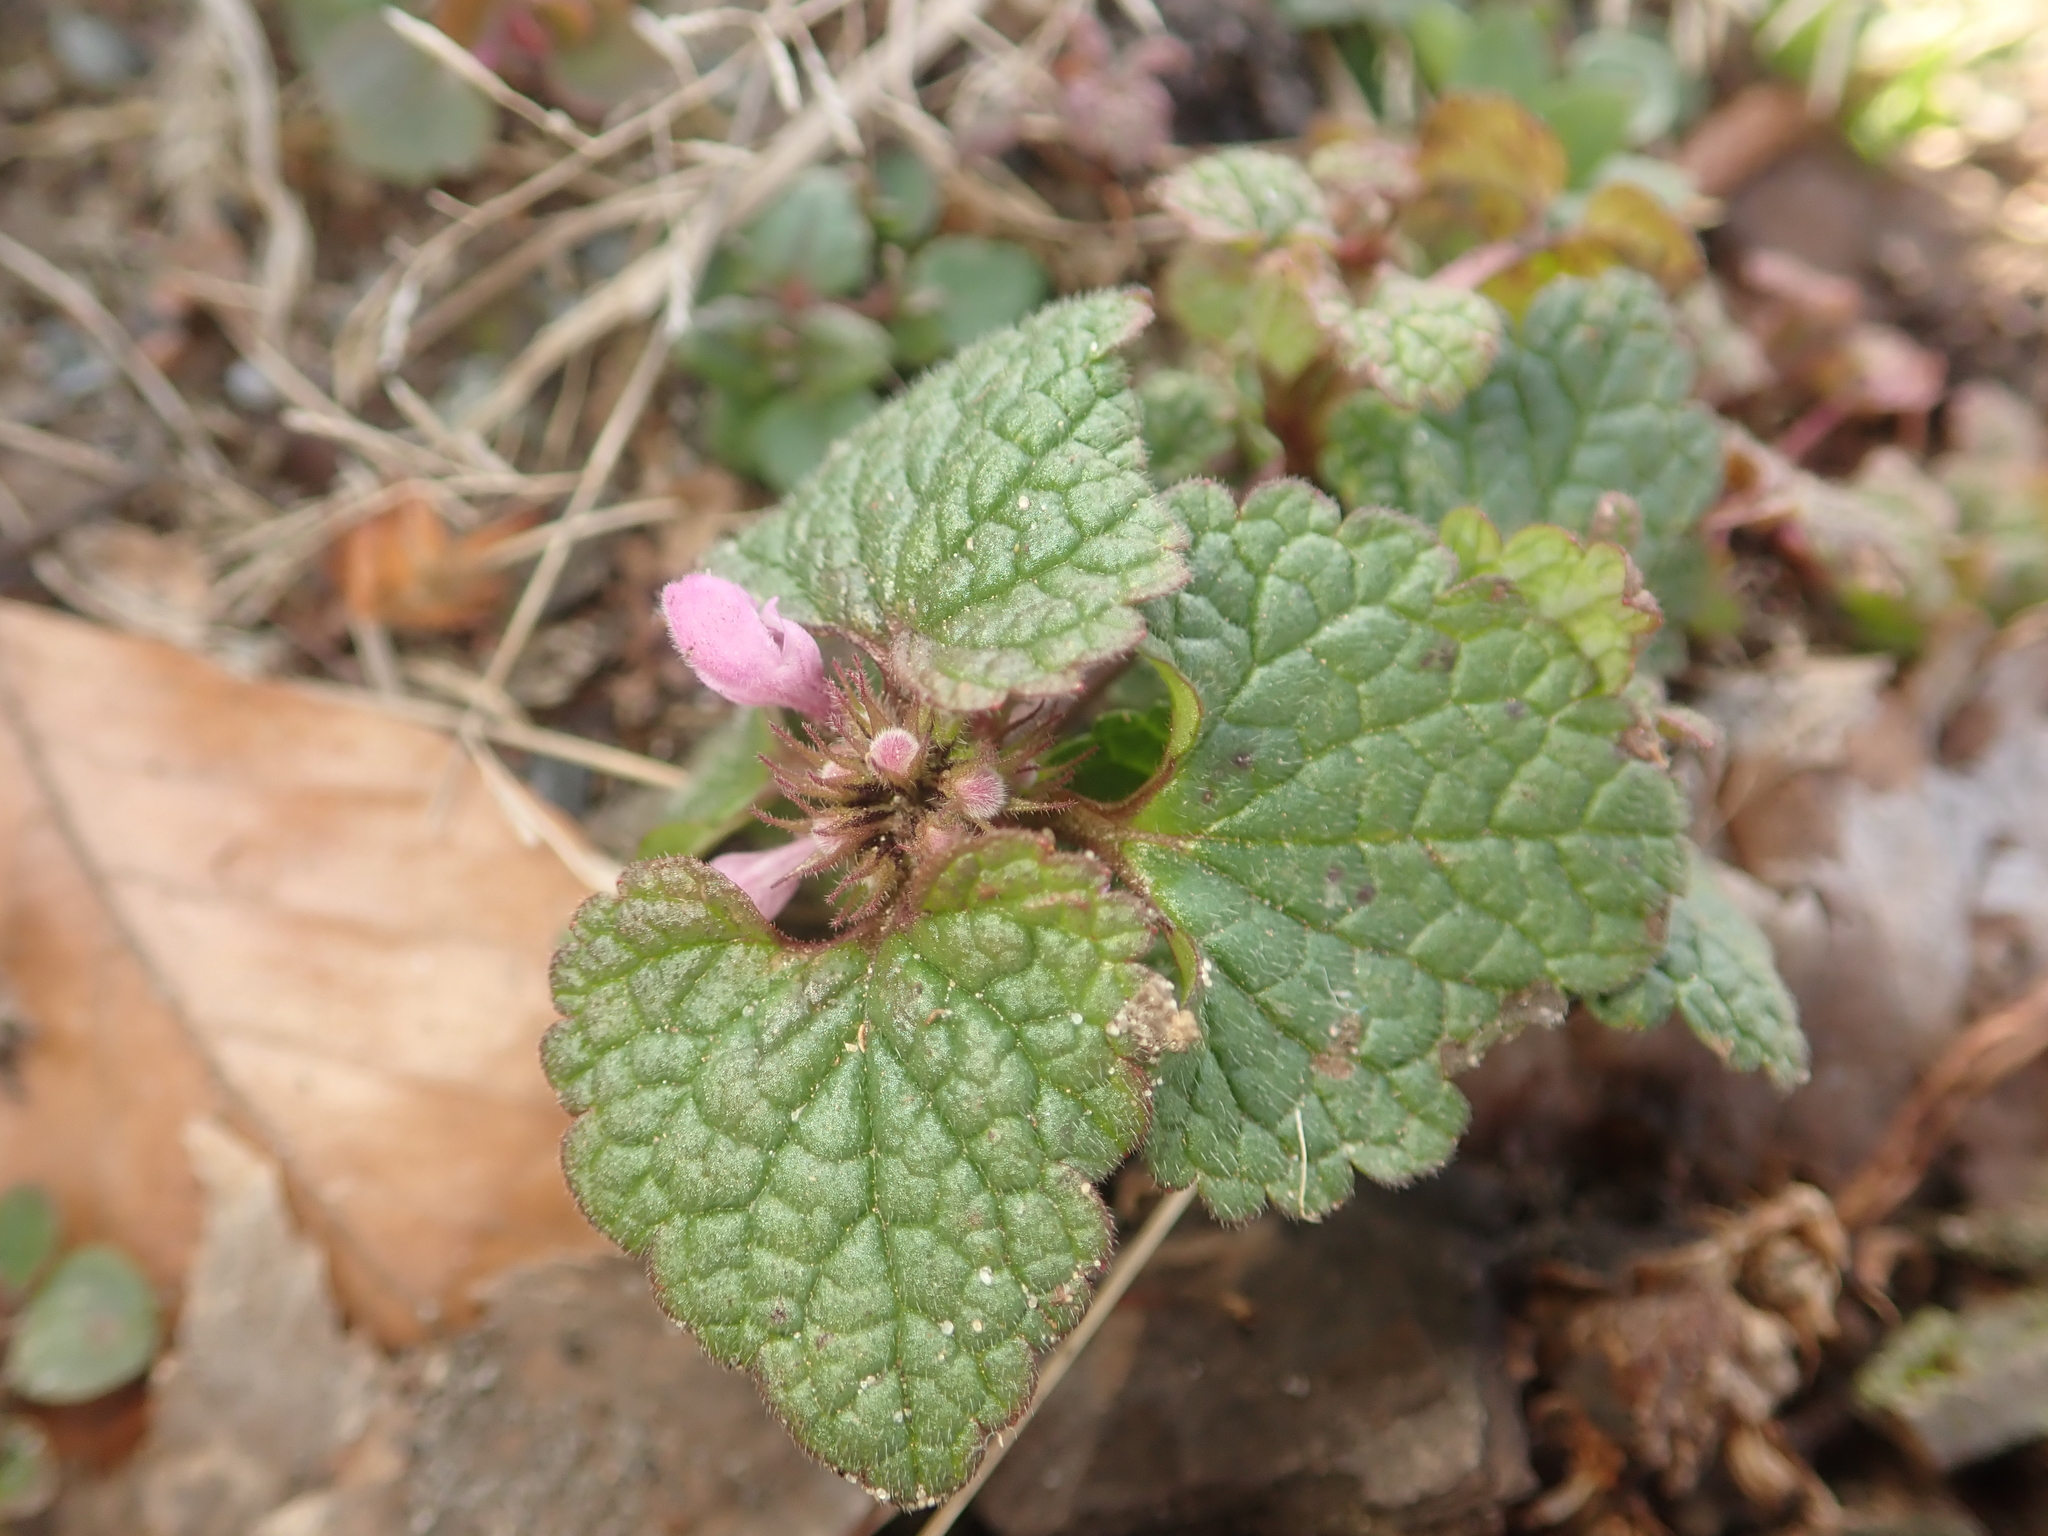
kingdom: Plantae
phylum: Tracheophyta
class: Magnoliopsida
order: Lamiales
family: Lamiaceae
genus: Lamium
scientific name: Lamium purpureum
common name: Red dead-nettle
